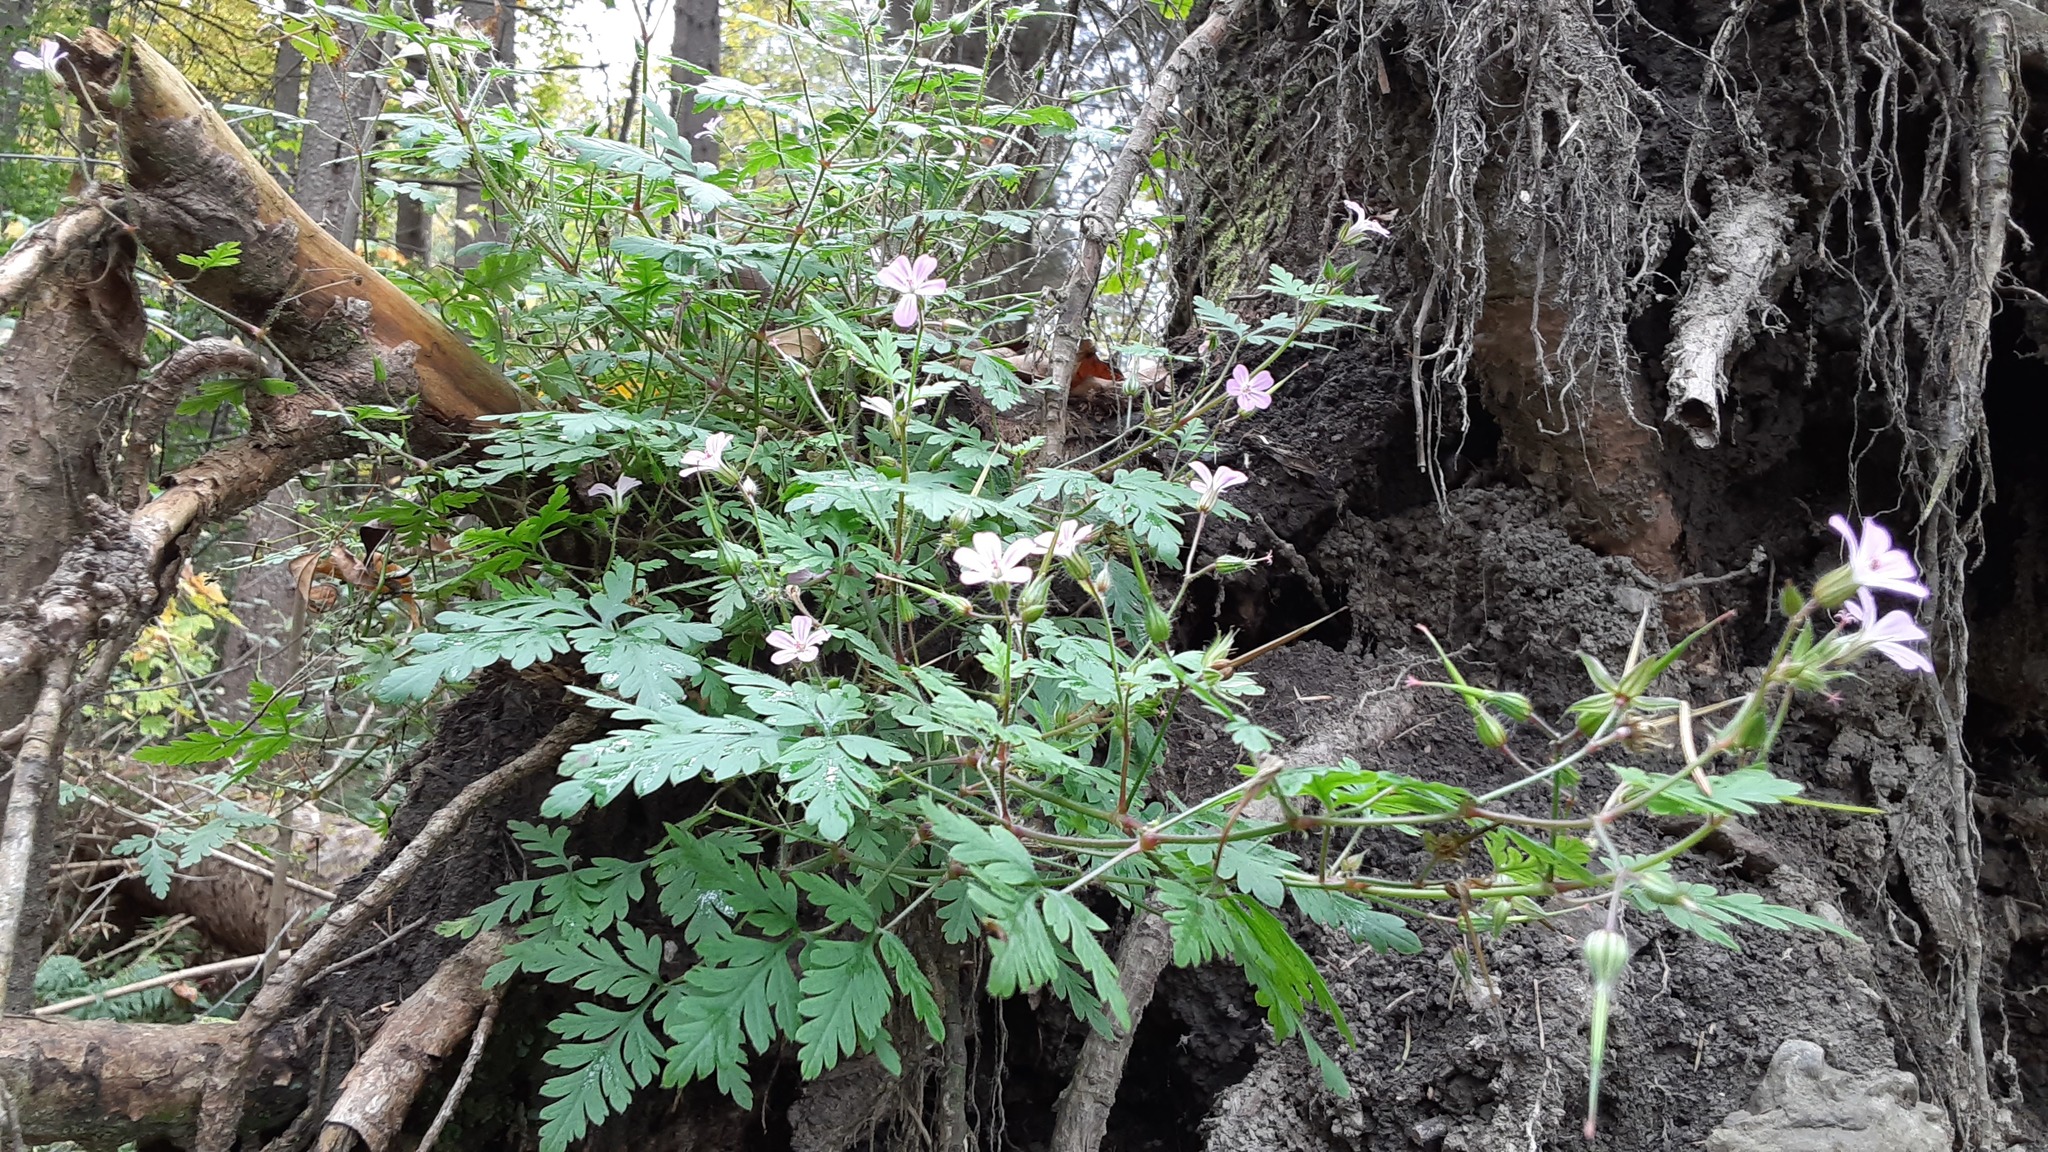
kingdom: Plantae
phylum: Tracheophyta
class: Magnoliopsida
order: Geraniales
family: Geraniaceae
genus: Geranium
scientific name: Geranium robertianum
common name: Herb-robert
